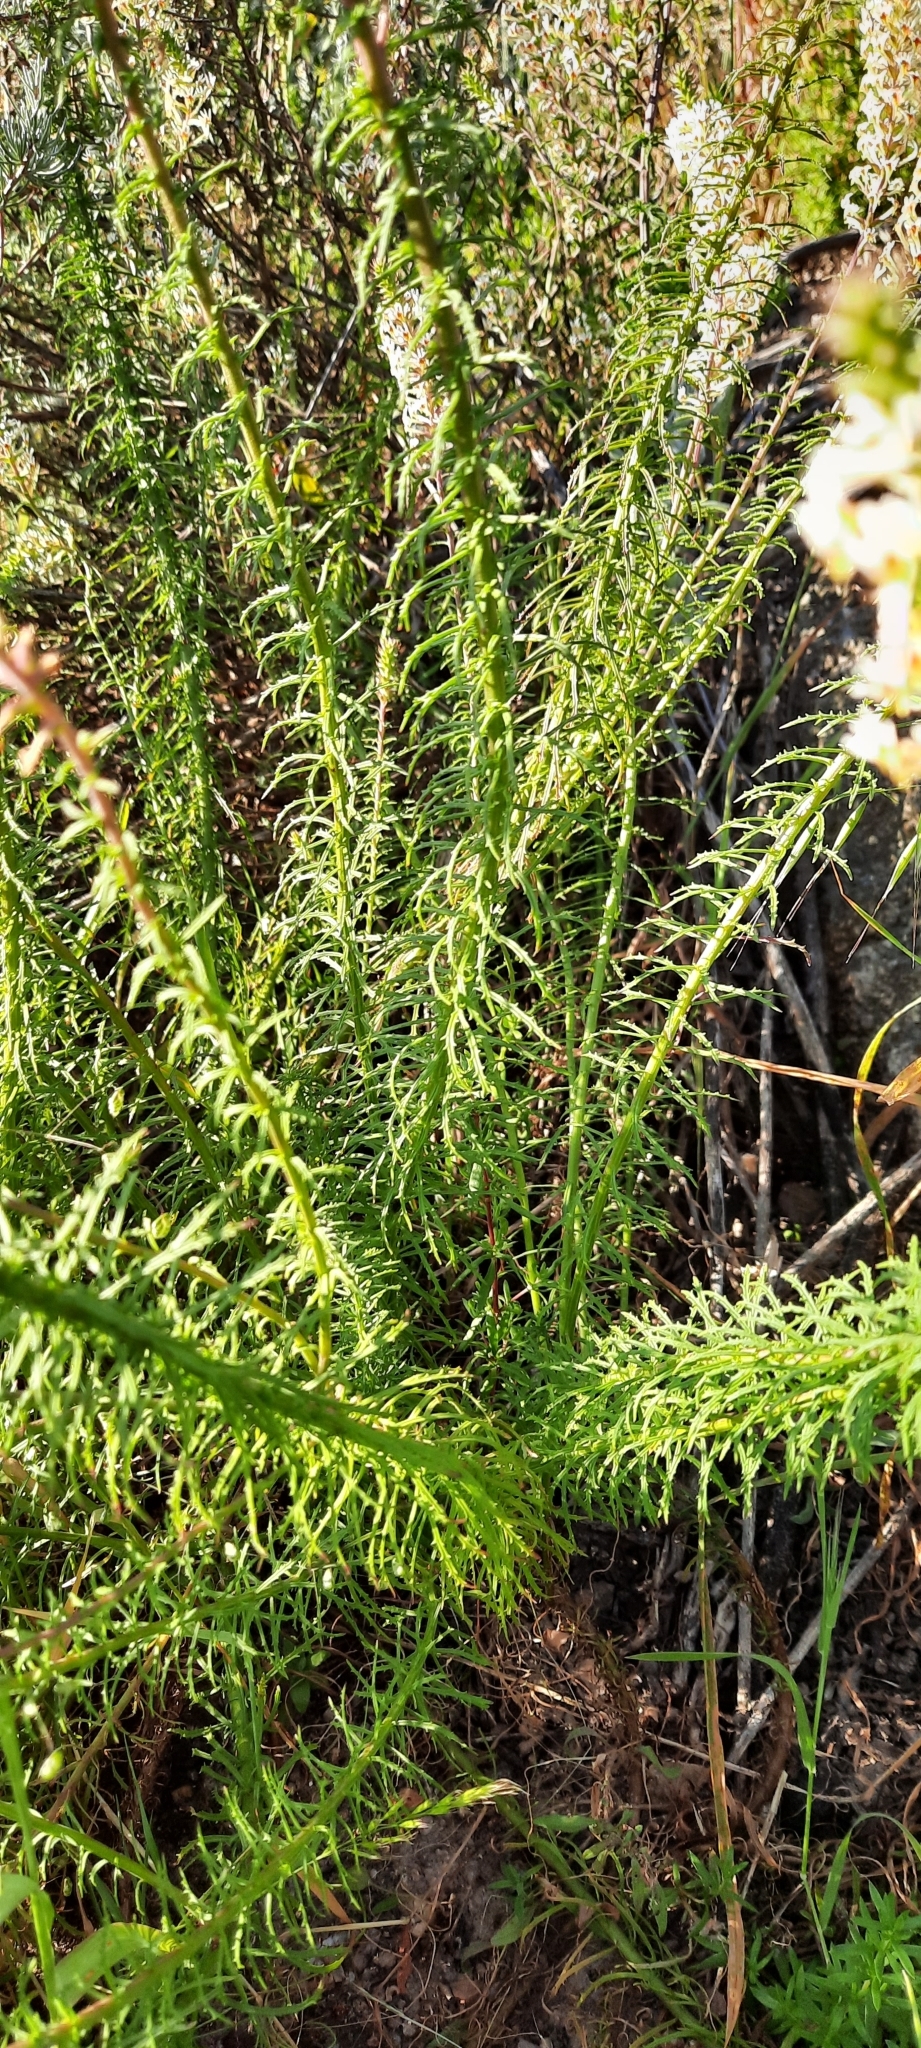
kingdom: Plantae
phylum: Tracheophyta
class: Magnoliopsida
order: Lamiales
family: Scrophulariaceae
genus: Hebenstretia
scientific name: Hebenstretia robusta
